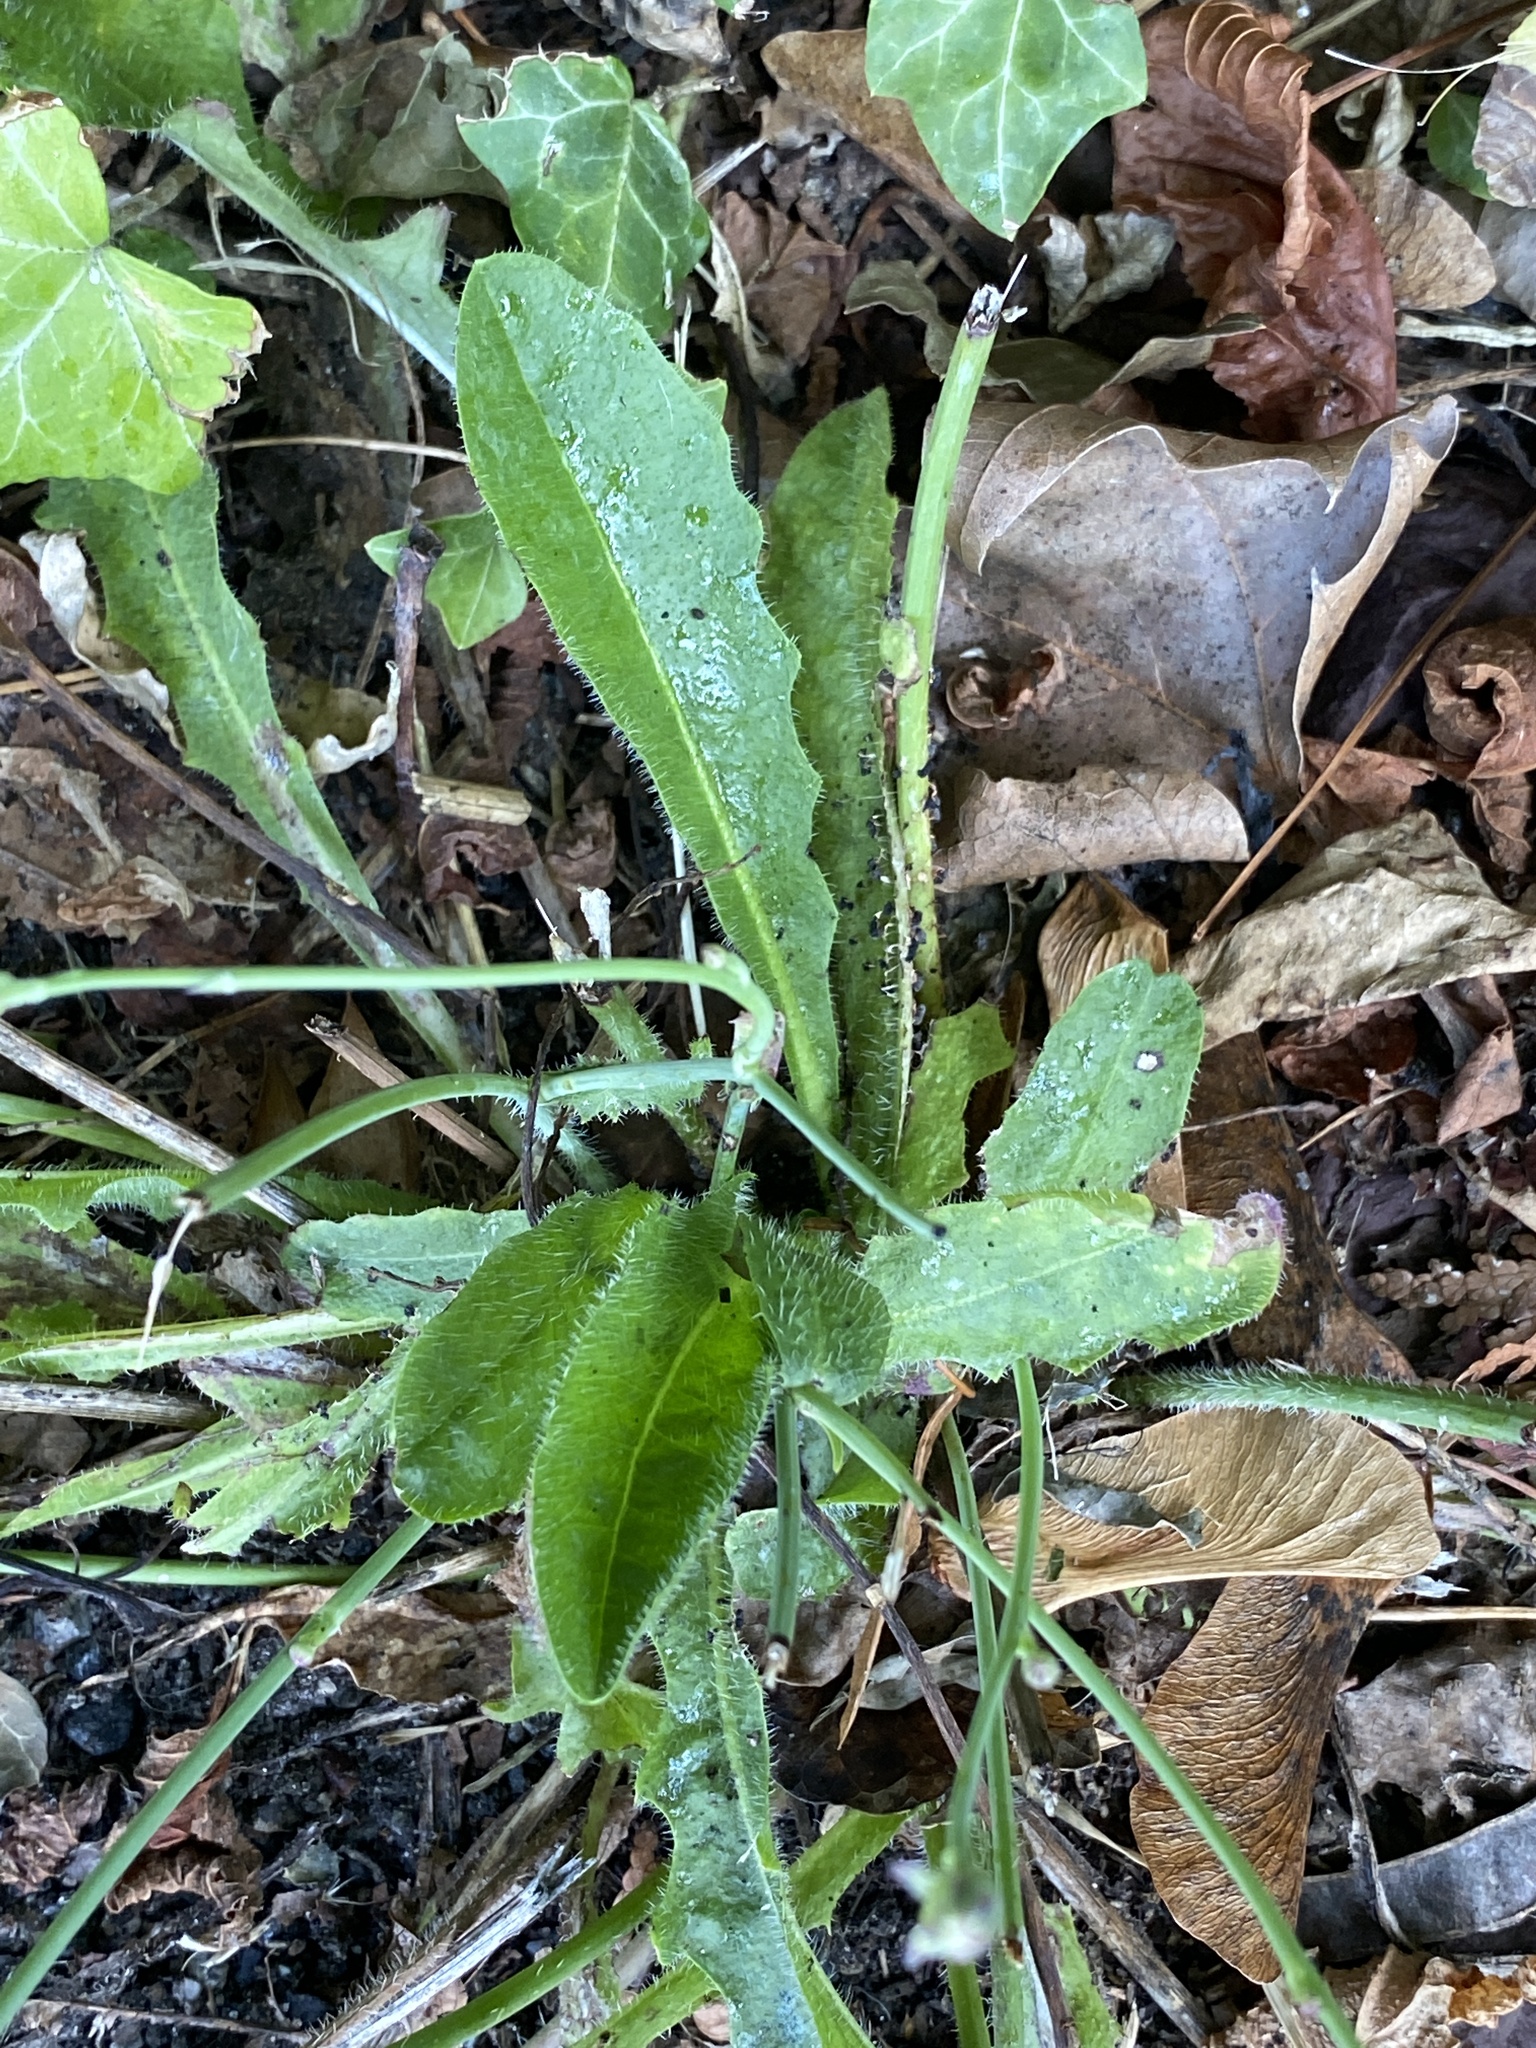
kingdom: Plantae
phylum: Tracheophyta
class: Magnoliopsida
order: Asterales
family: Asteraceae
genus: Hypochaeris
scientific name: Hypochaeris radicata
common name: Flatweed
